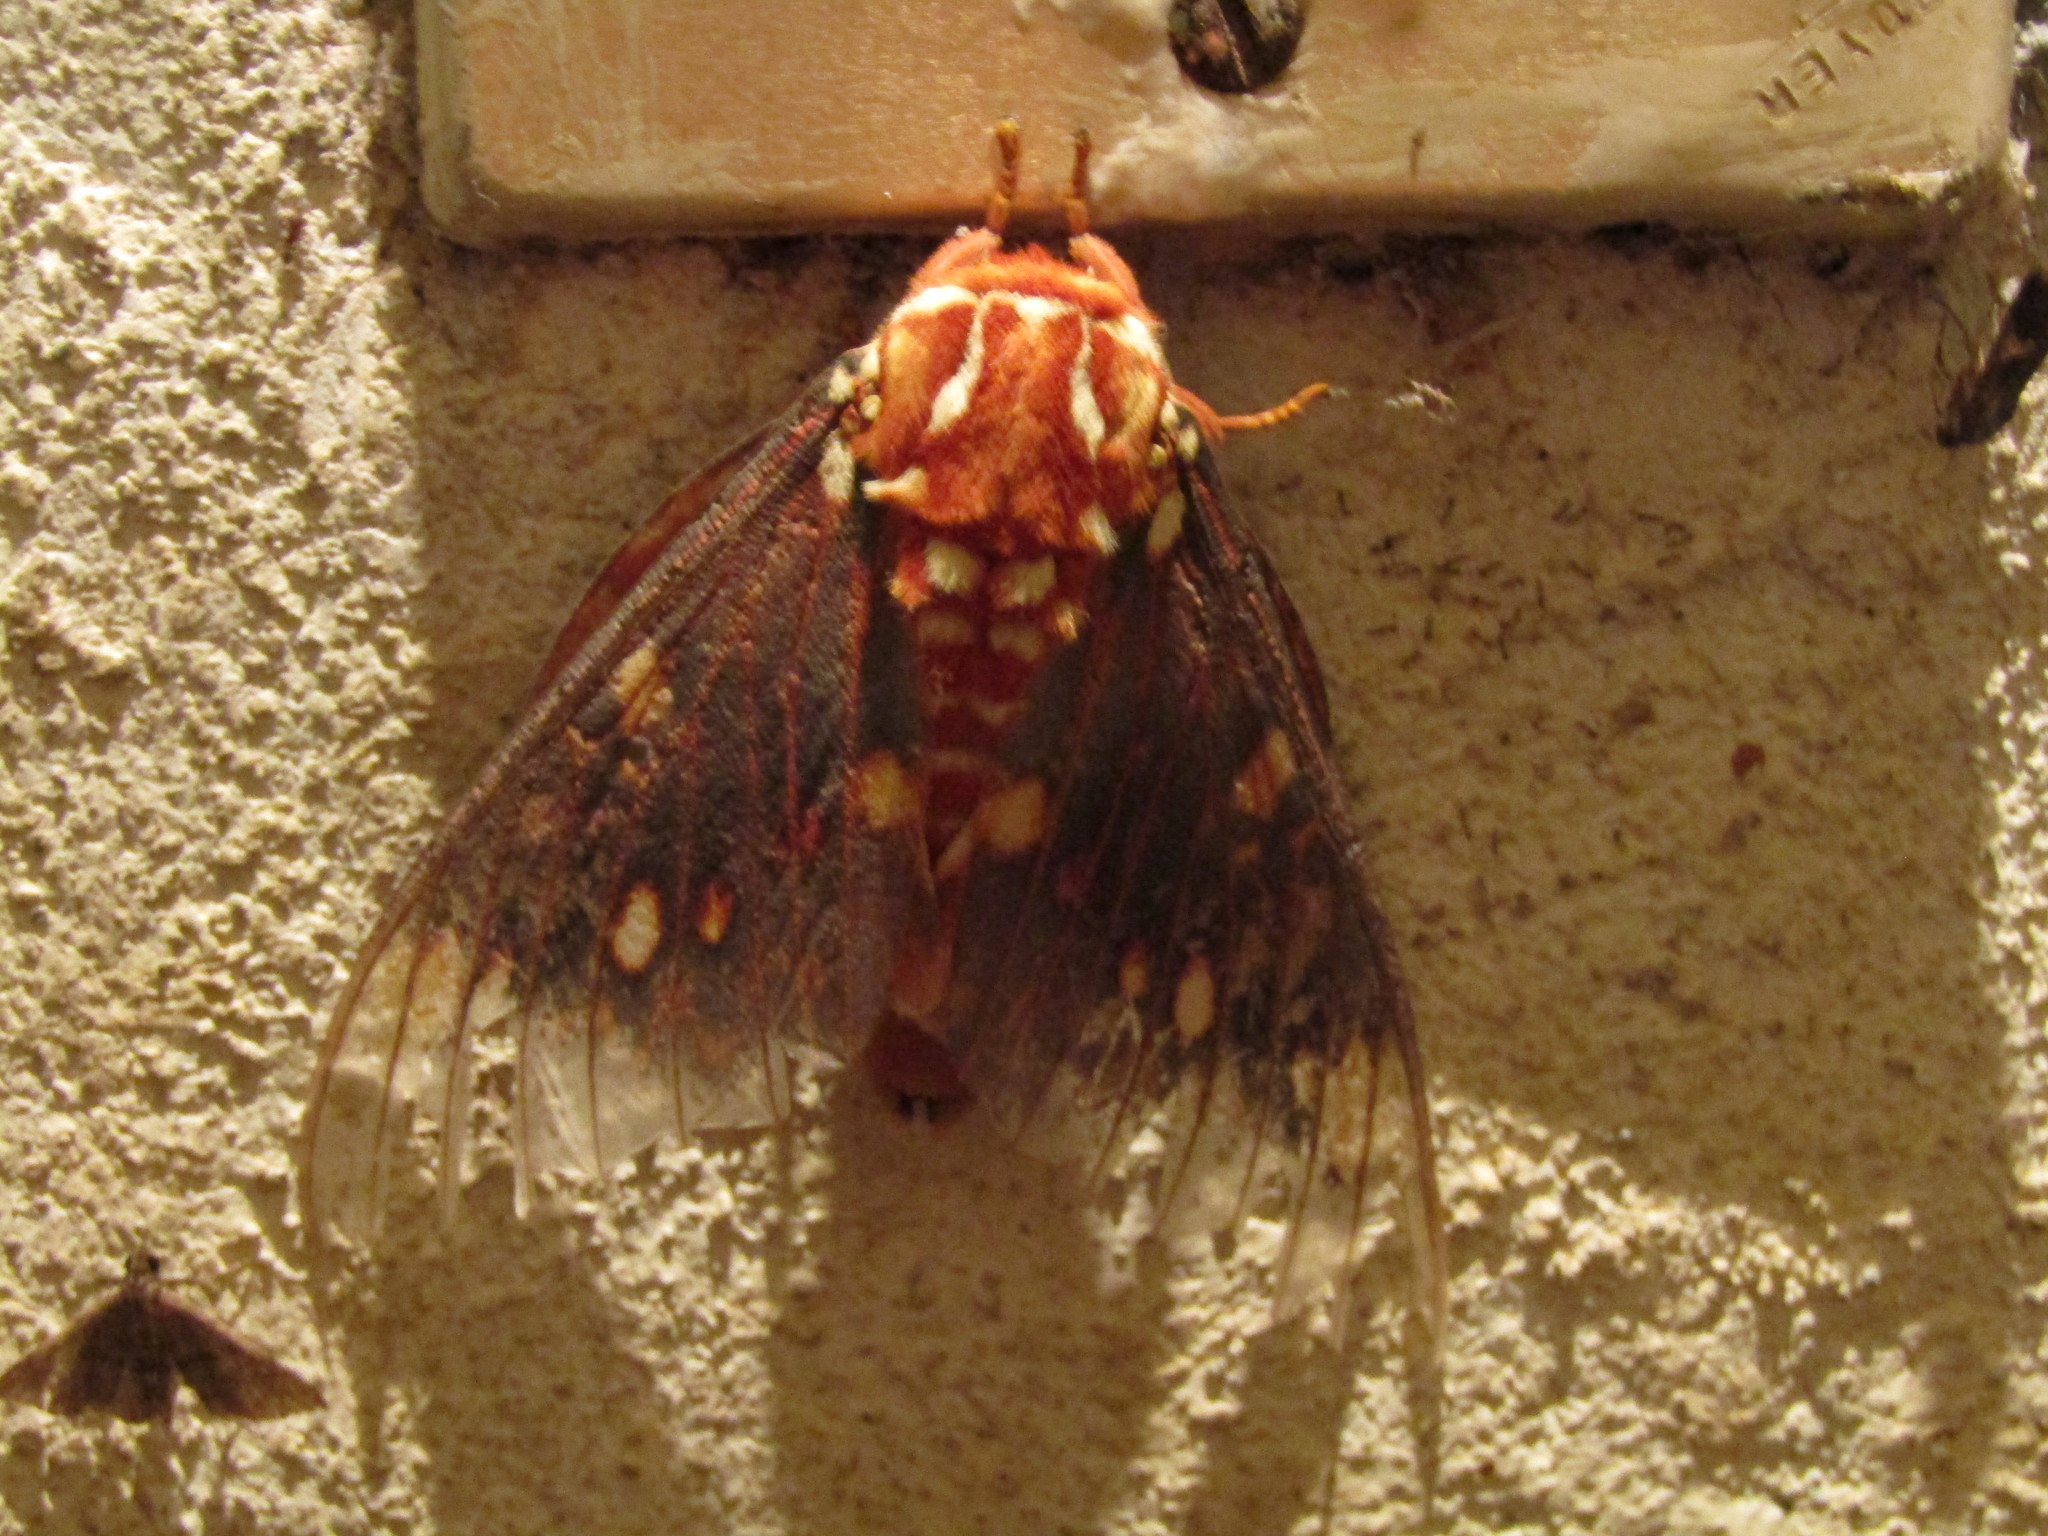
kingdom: Animalia
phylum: Arthropoda
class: Insecta
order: Lepidoptera
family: Saturniidae
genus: Citheronia
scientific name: Citheronia mexicana
